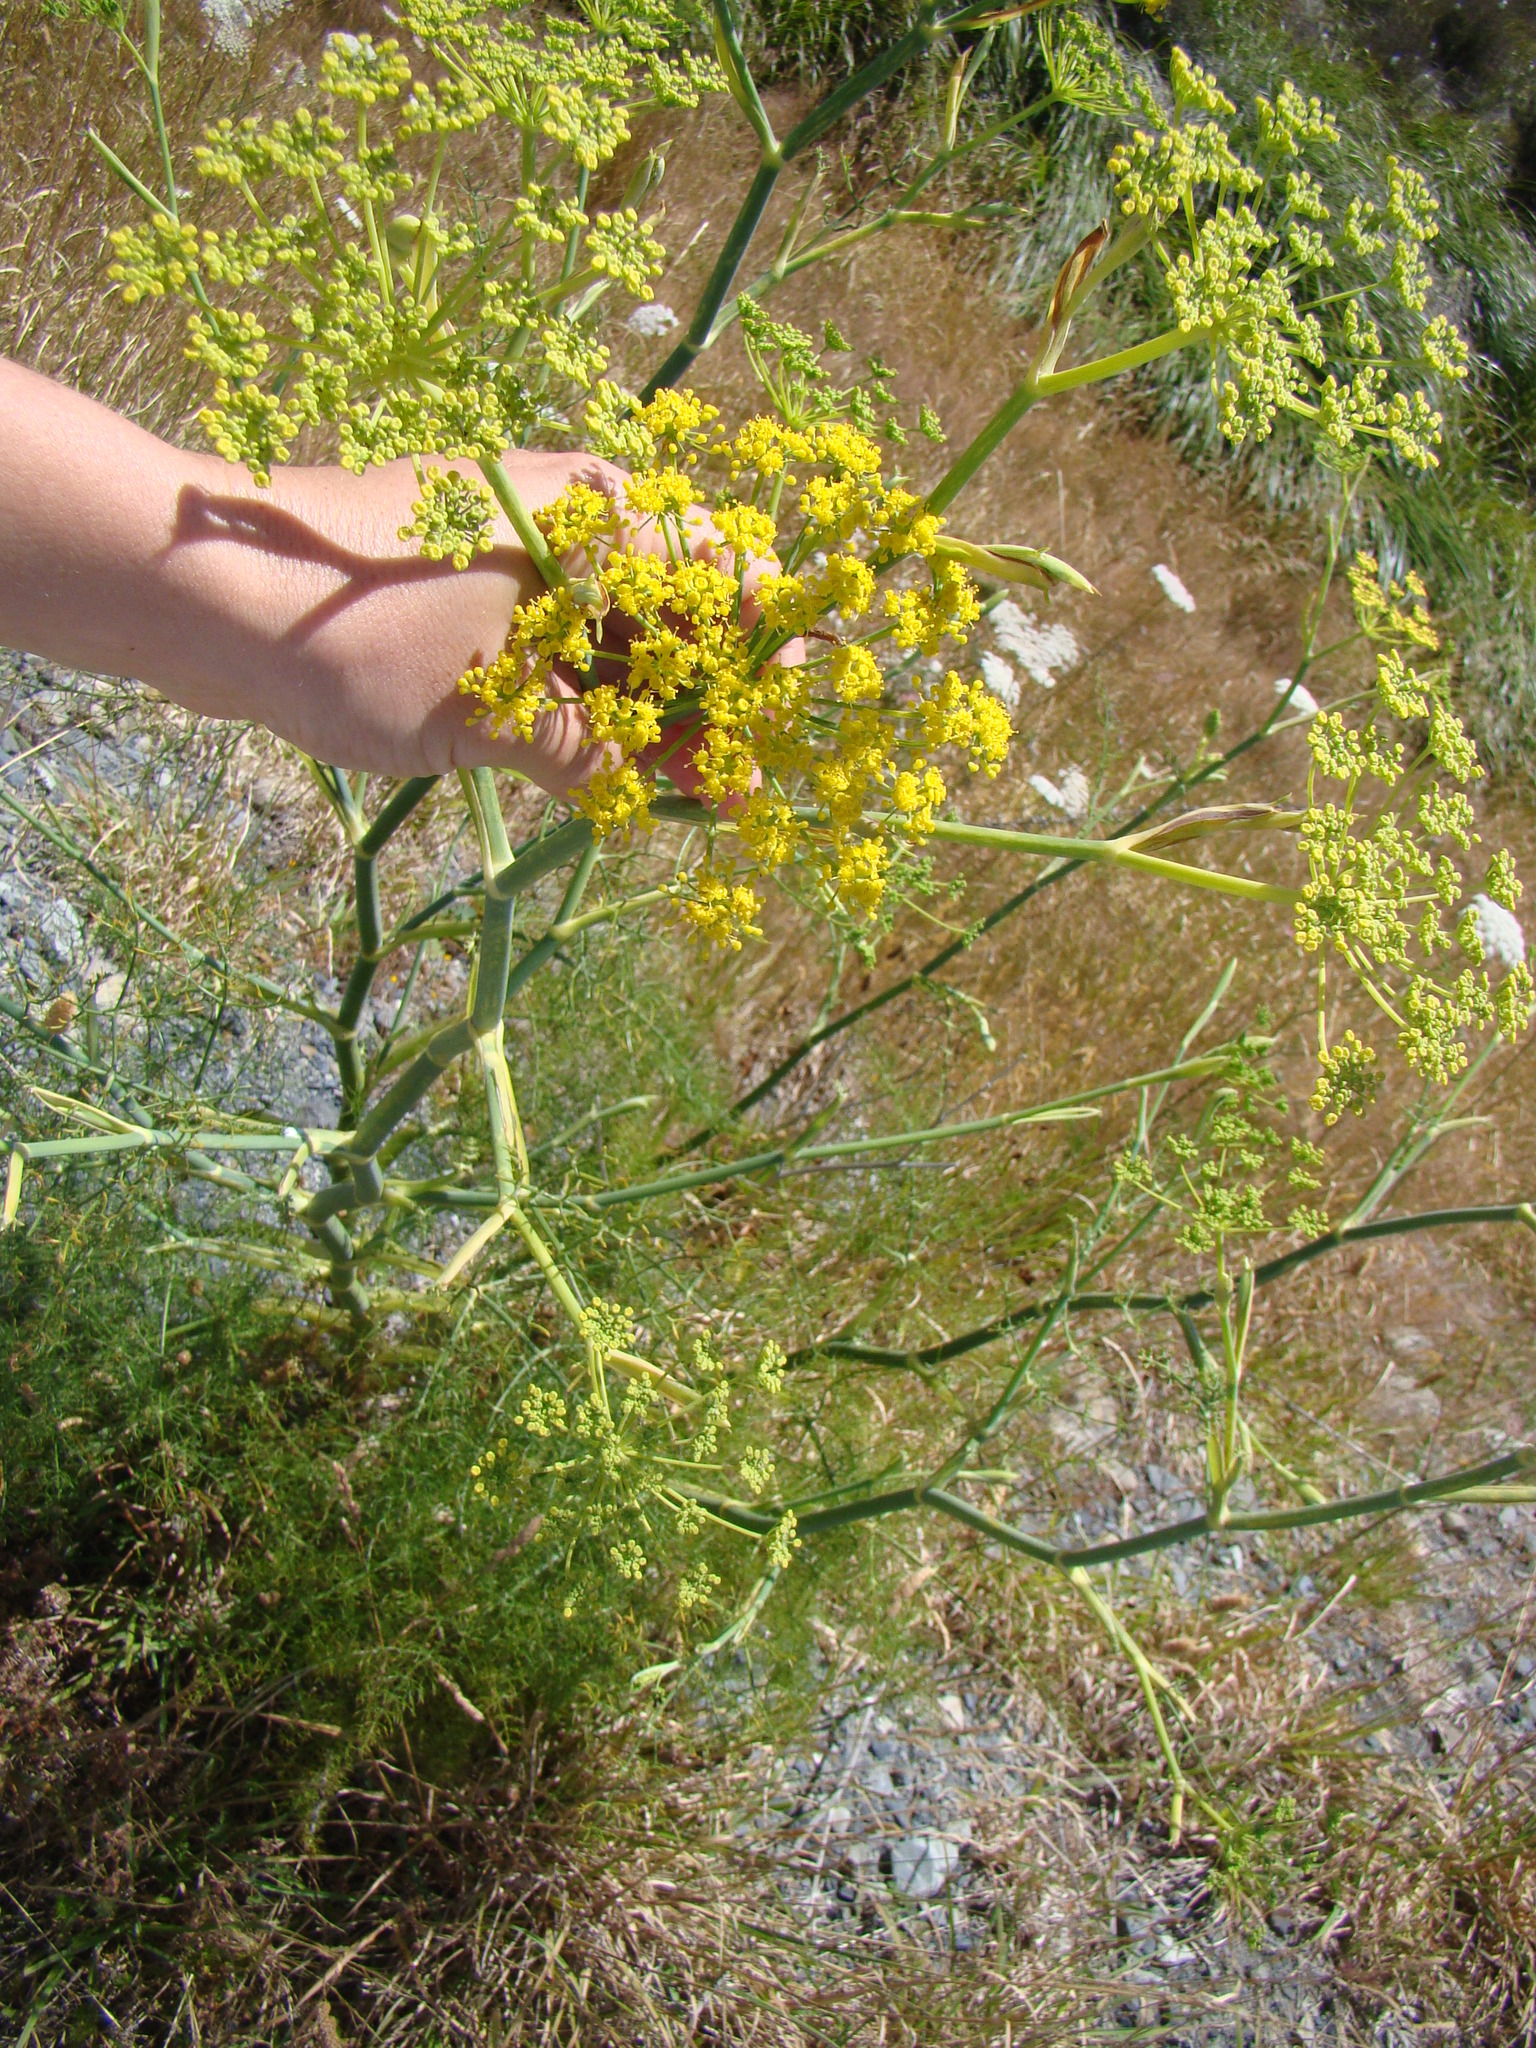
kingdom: Plantae
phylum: Tracheophyta
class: Magnoliopsida
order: Apiales
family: Apiaceae
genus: Foeniculum
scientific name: Foeniculum vulgare
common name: Fennel
